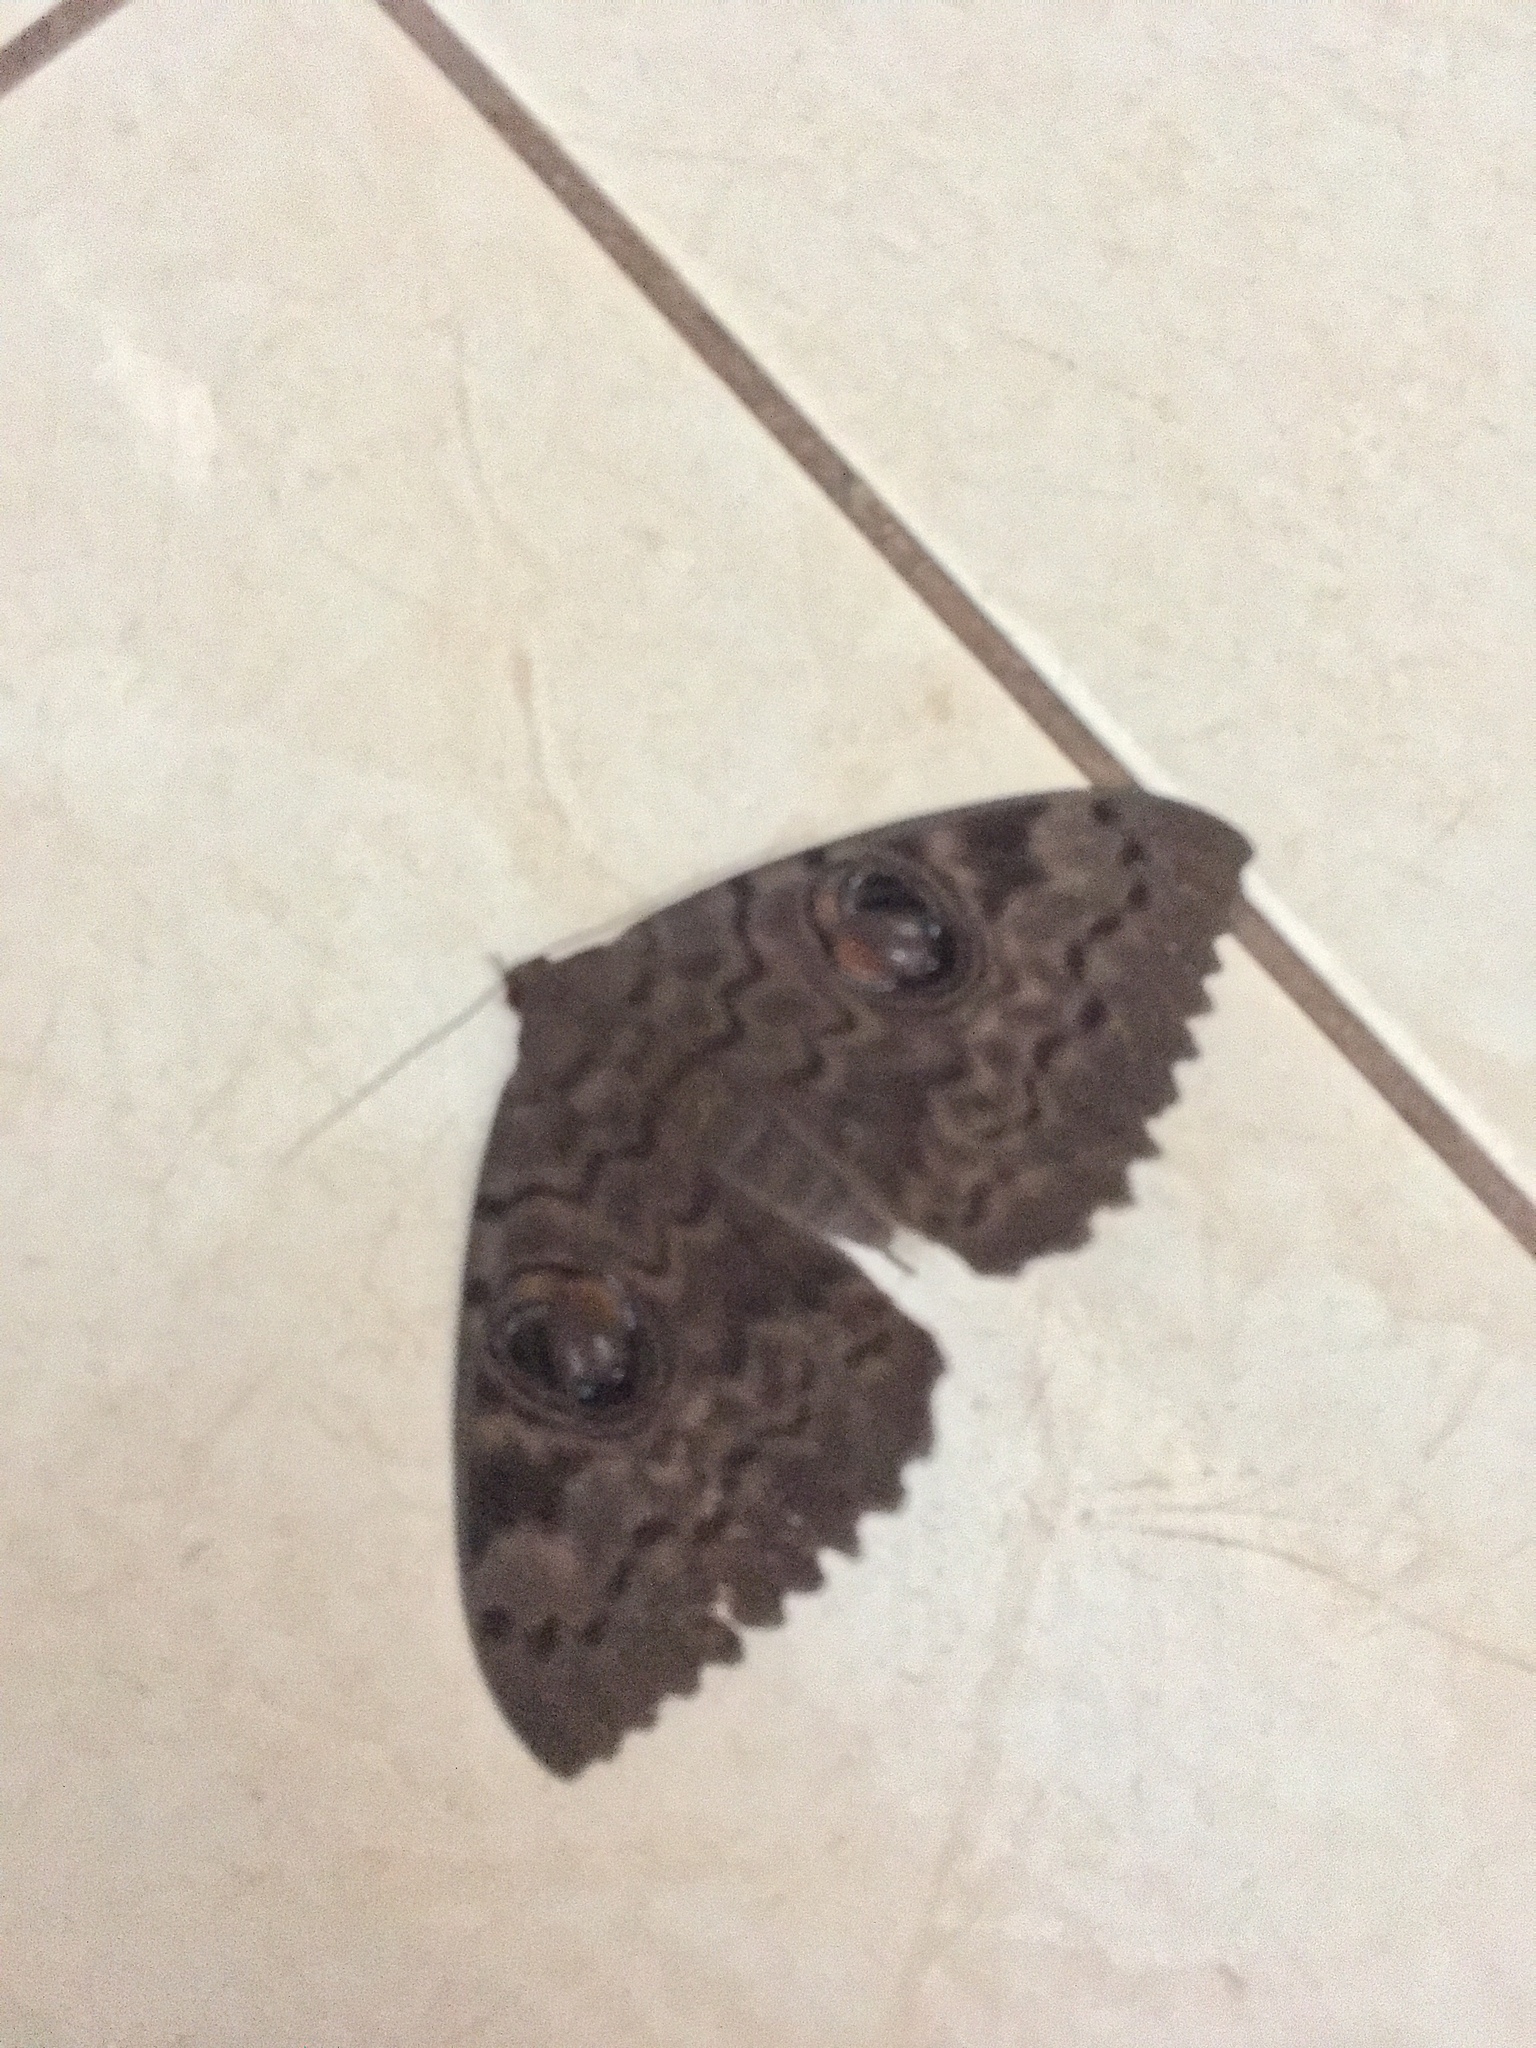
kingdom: Animalia
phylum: Arthropoda
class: Insecta
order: Lepidoptera
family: Erebidae
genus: Erebus
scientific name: Erebus walkeri
